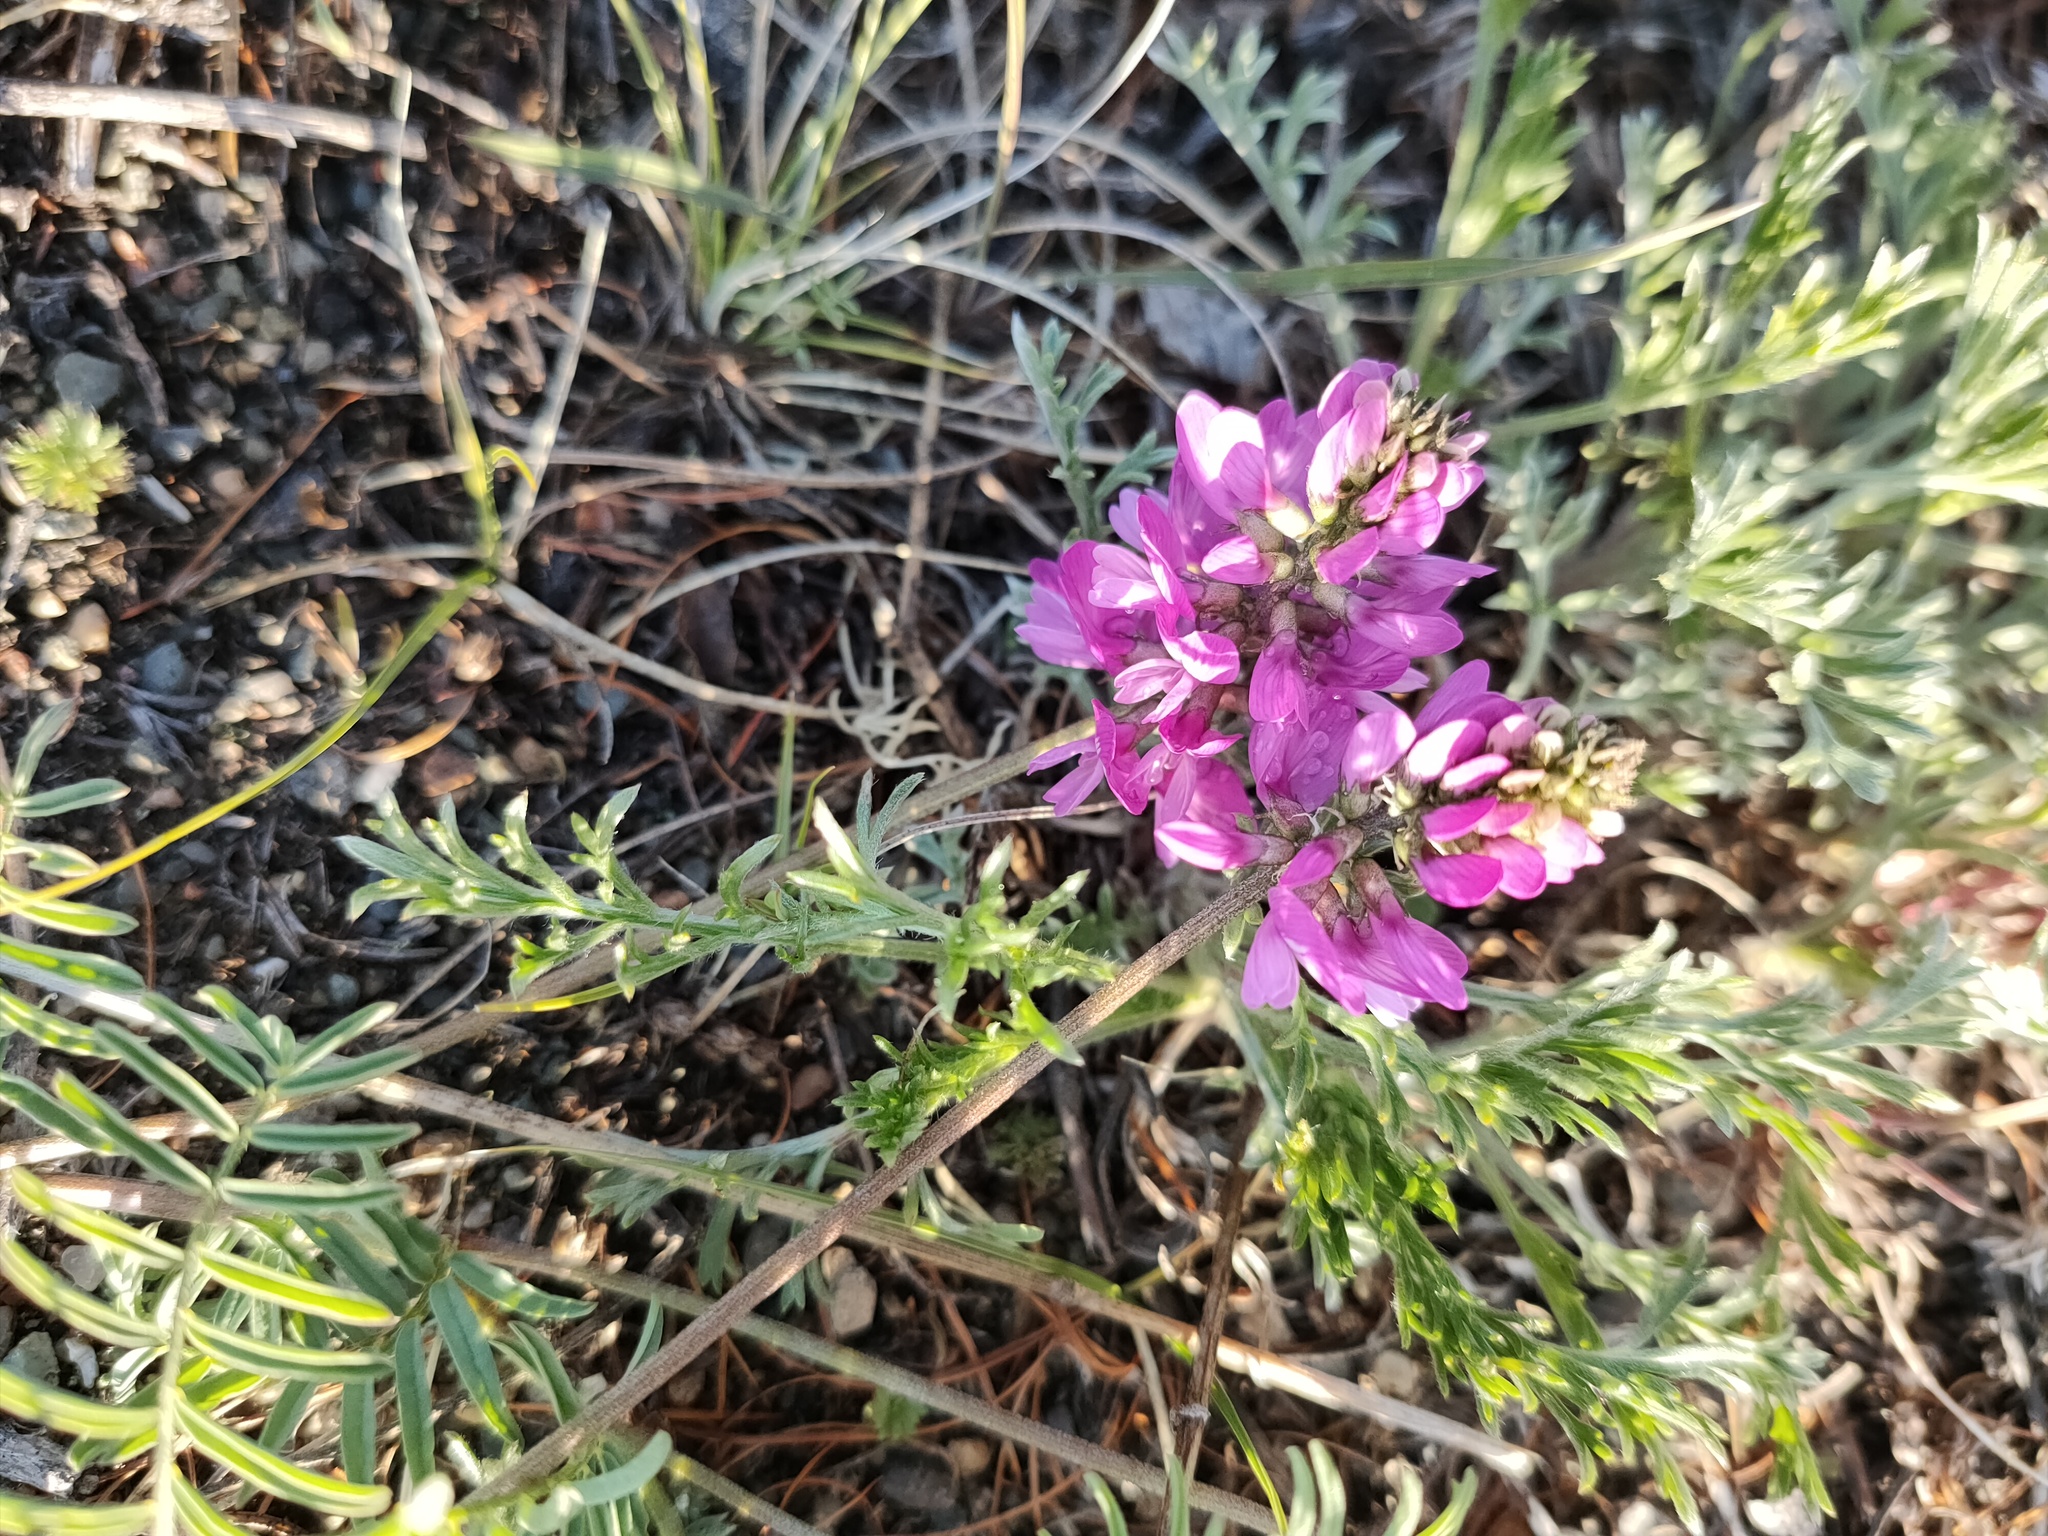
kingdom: Plantae
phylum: Tracheophyta
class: Magnoliopsida
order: Fabales
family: Fabaceae
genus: Astragalus
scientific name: Astragalus versicolor
